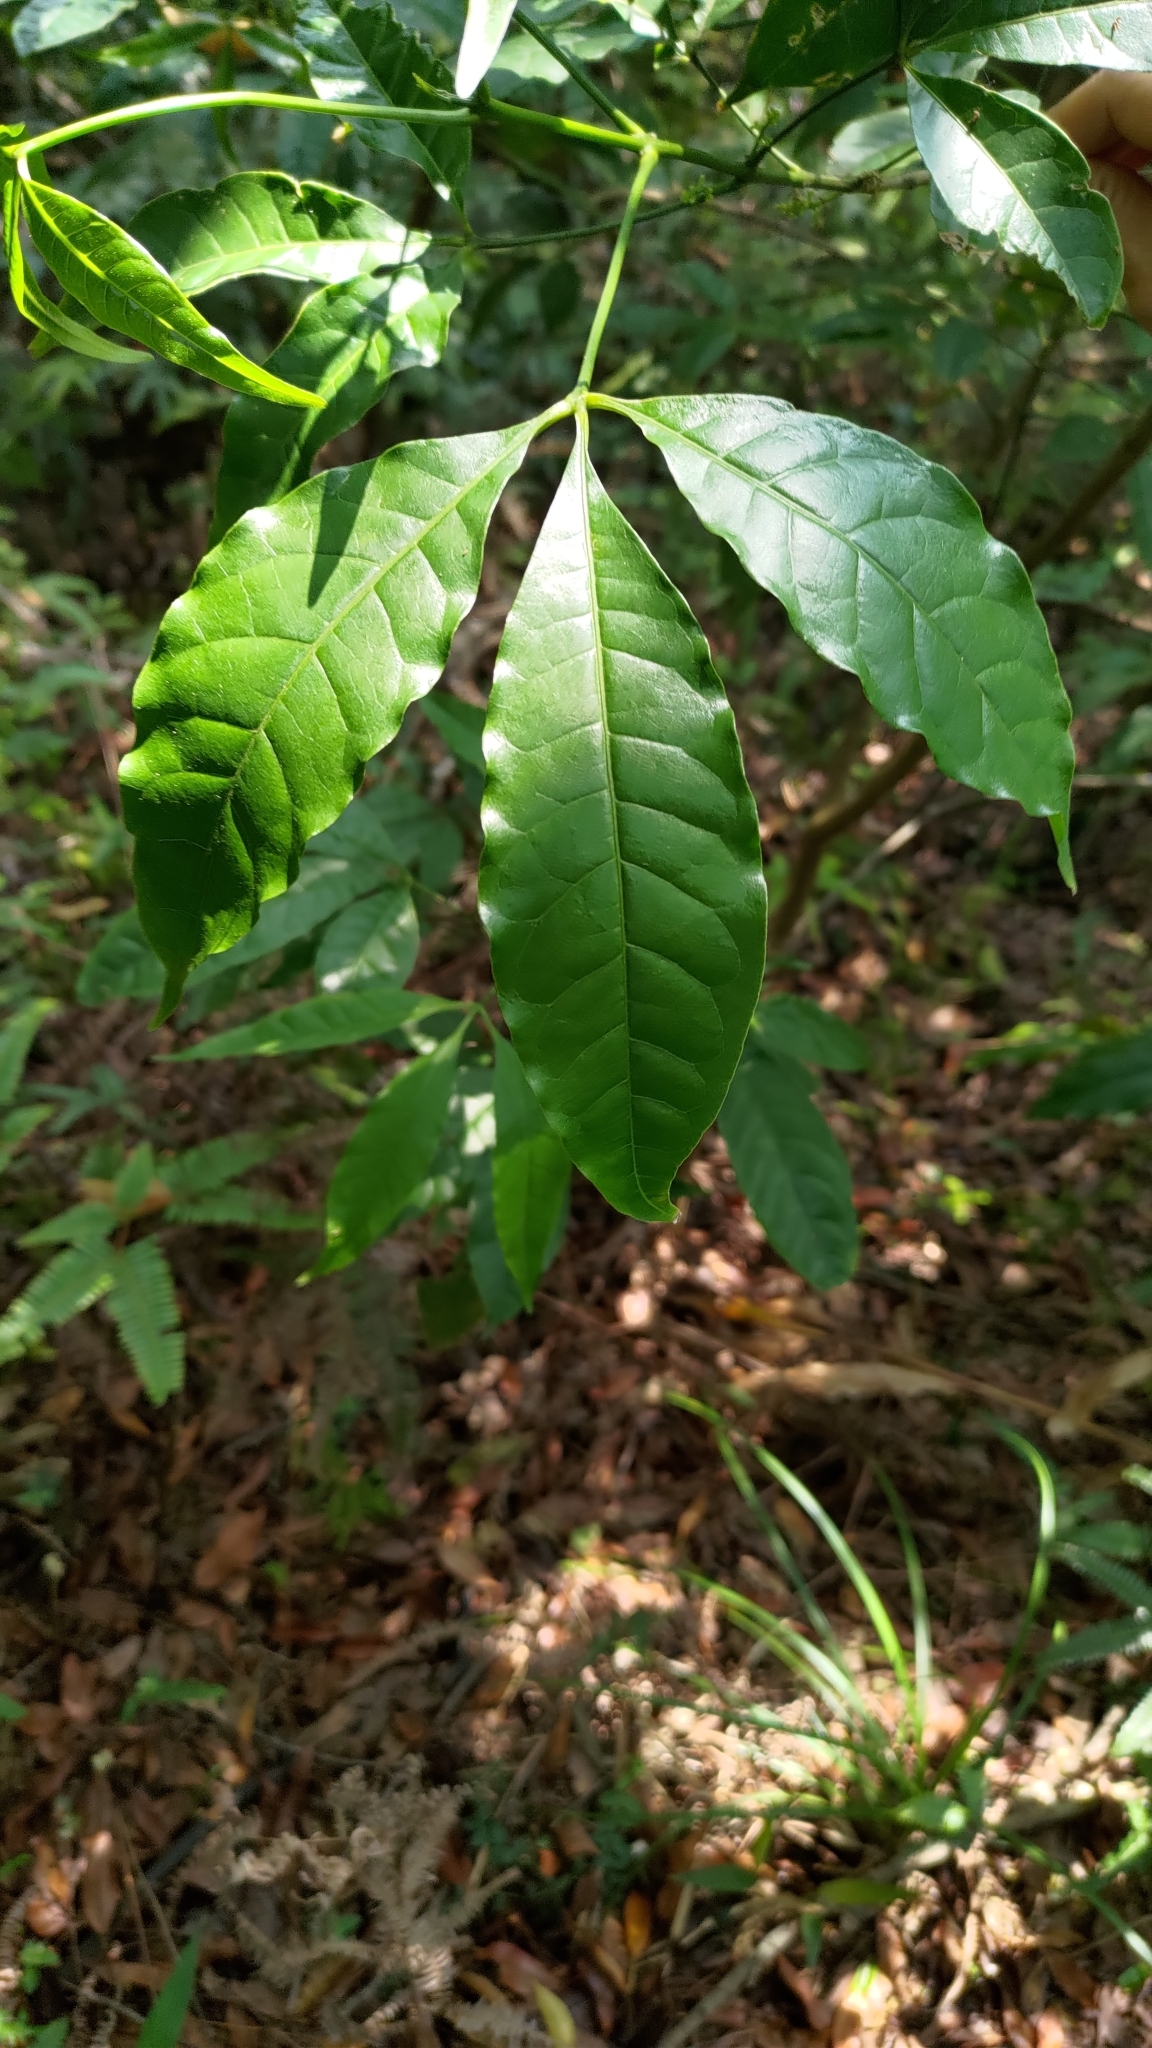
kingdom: Plantae
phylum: Tracheophyta
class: Magnoliopsida
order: Sapindales
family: Rutaceae
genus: Melicope
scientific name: Melicope pteleifolia
